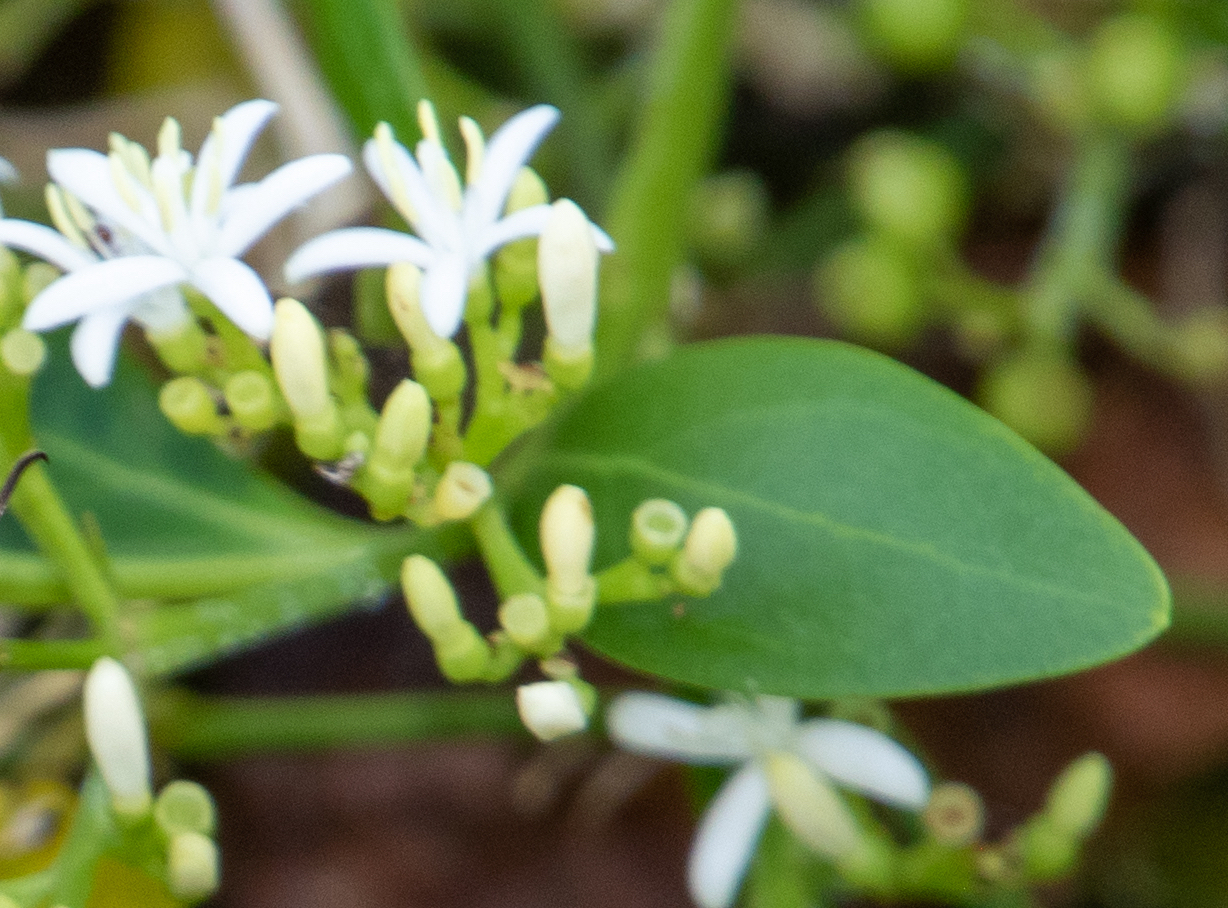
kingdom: Plantae
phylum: Tracheophyta
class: Magnoliopsida
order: Gentianales
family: Rubiaceae
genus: Erithalis
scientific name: Erithalis fruticosa
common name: Candlewood
